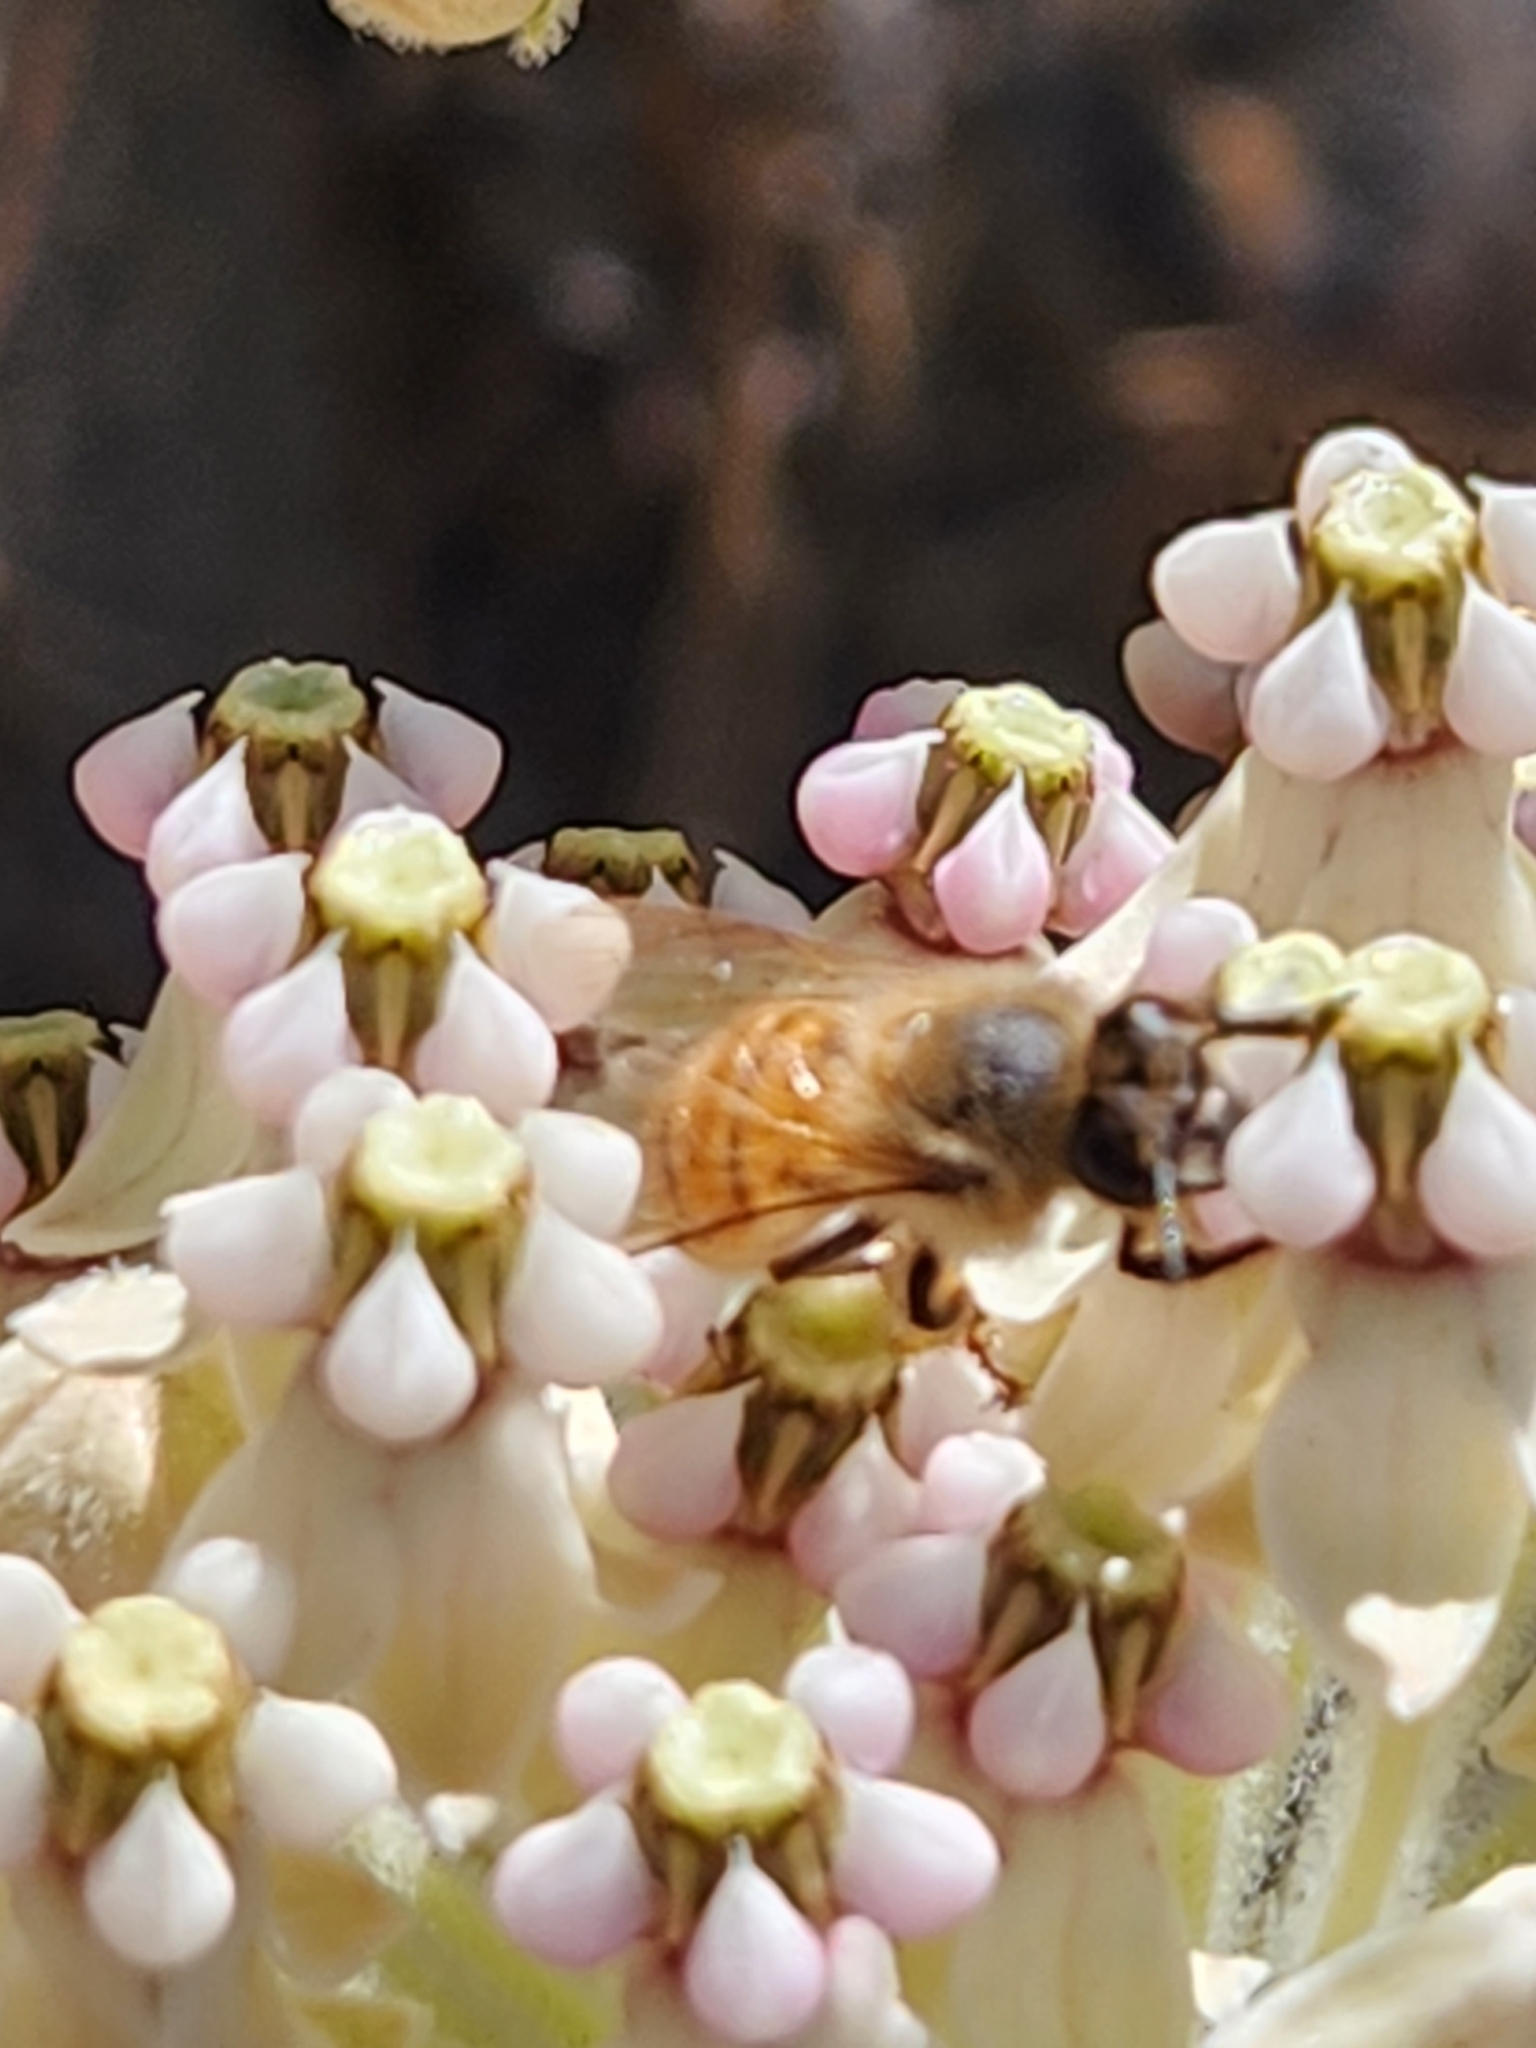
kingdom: Animalia
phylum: Arthropoda
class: Insecta
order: Hymenoptera
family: Apidae
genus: Apis
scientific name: Apis mellifera
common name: Honey bee
